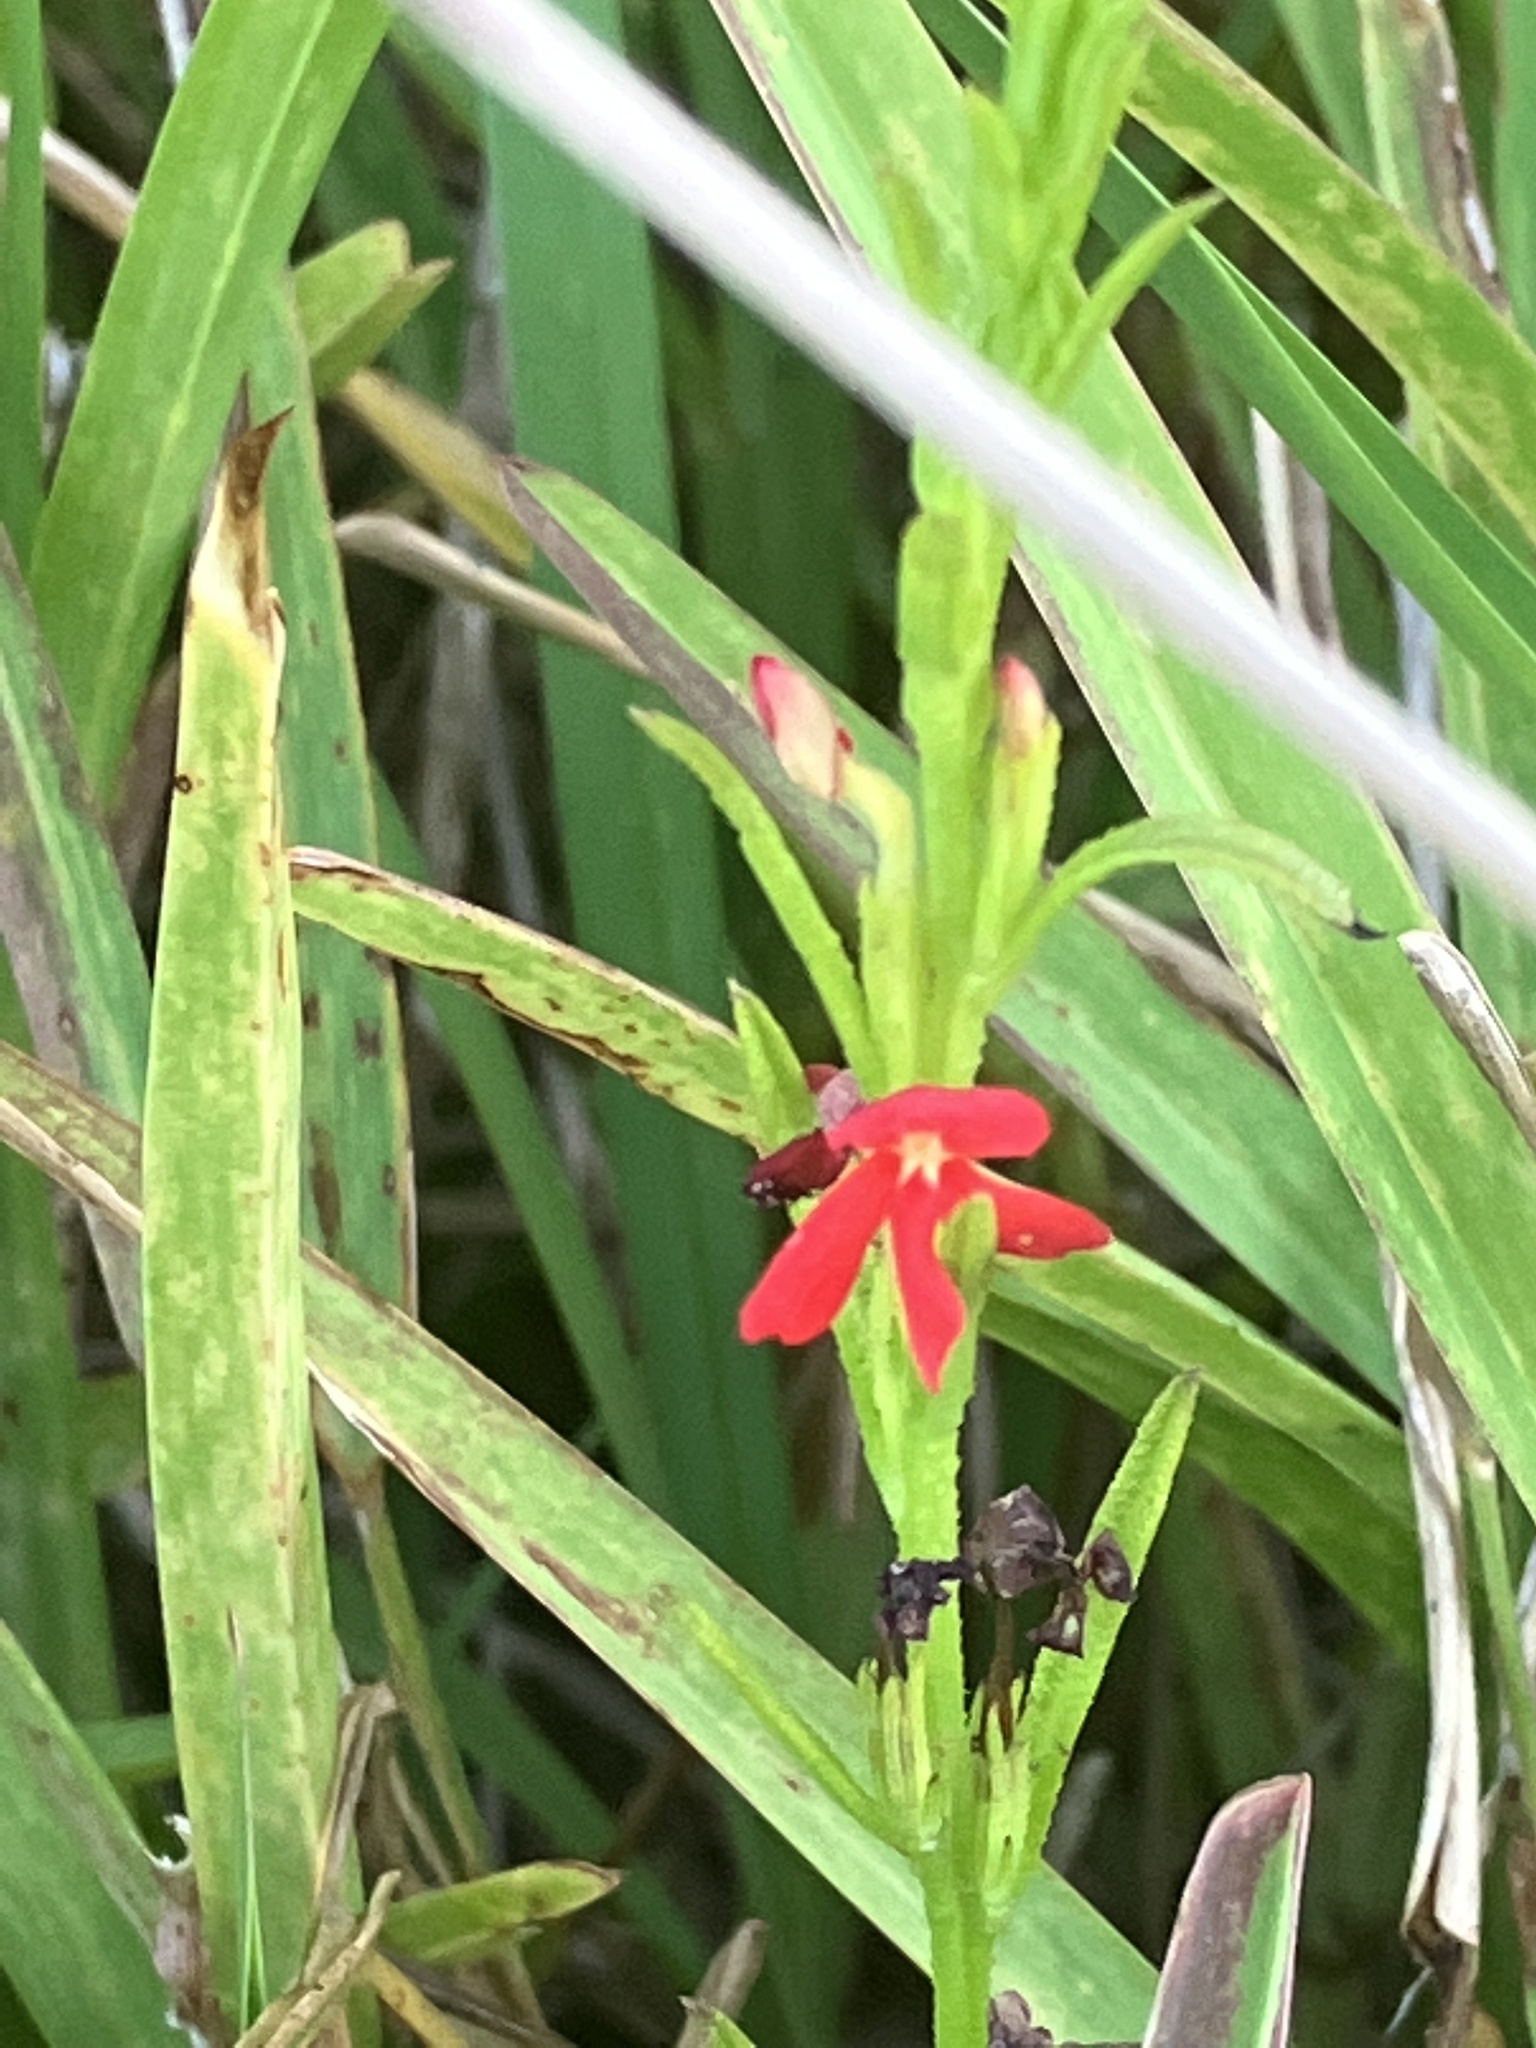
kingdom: Plantae
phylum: Tracheophyta
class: Magnoliopsida
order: Lamiales
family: Orobanchaceae
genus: Striga
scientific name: Striga asiatica
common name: Asiatic witchweed
